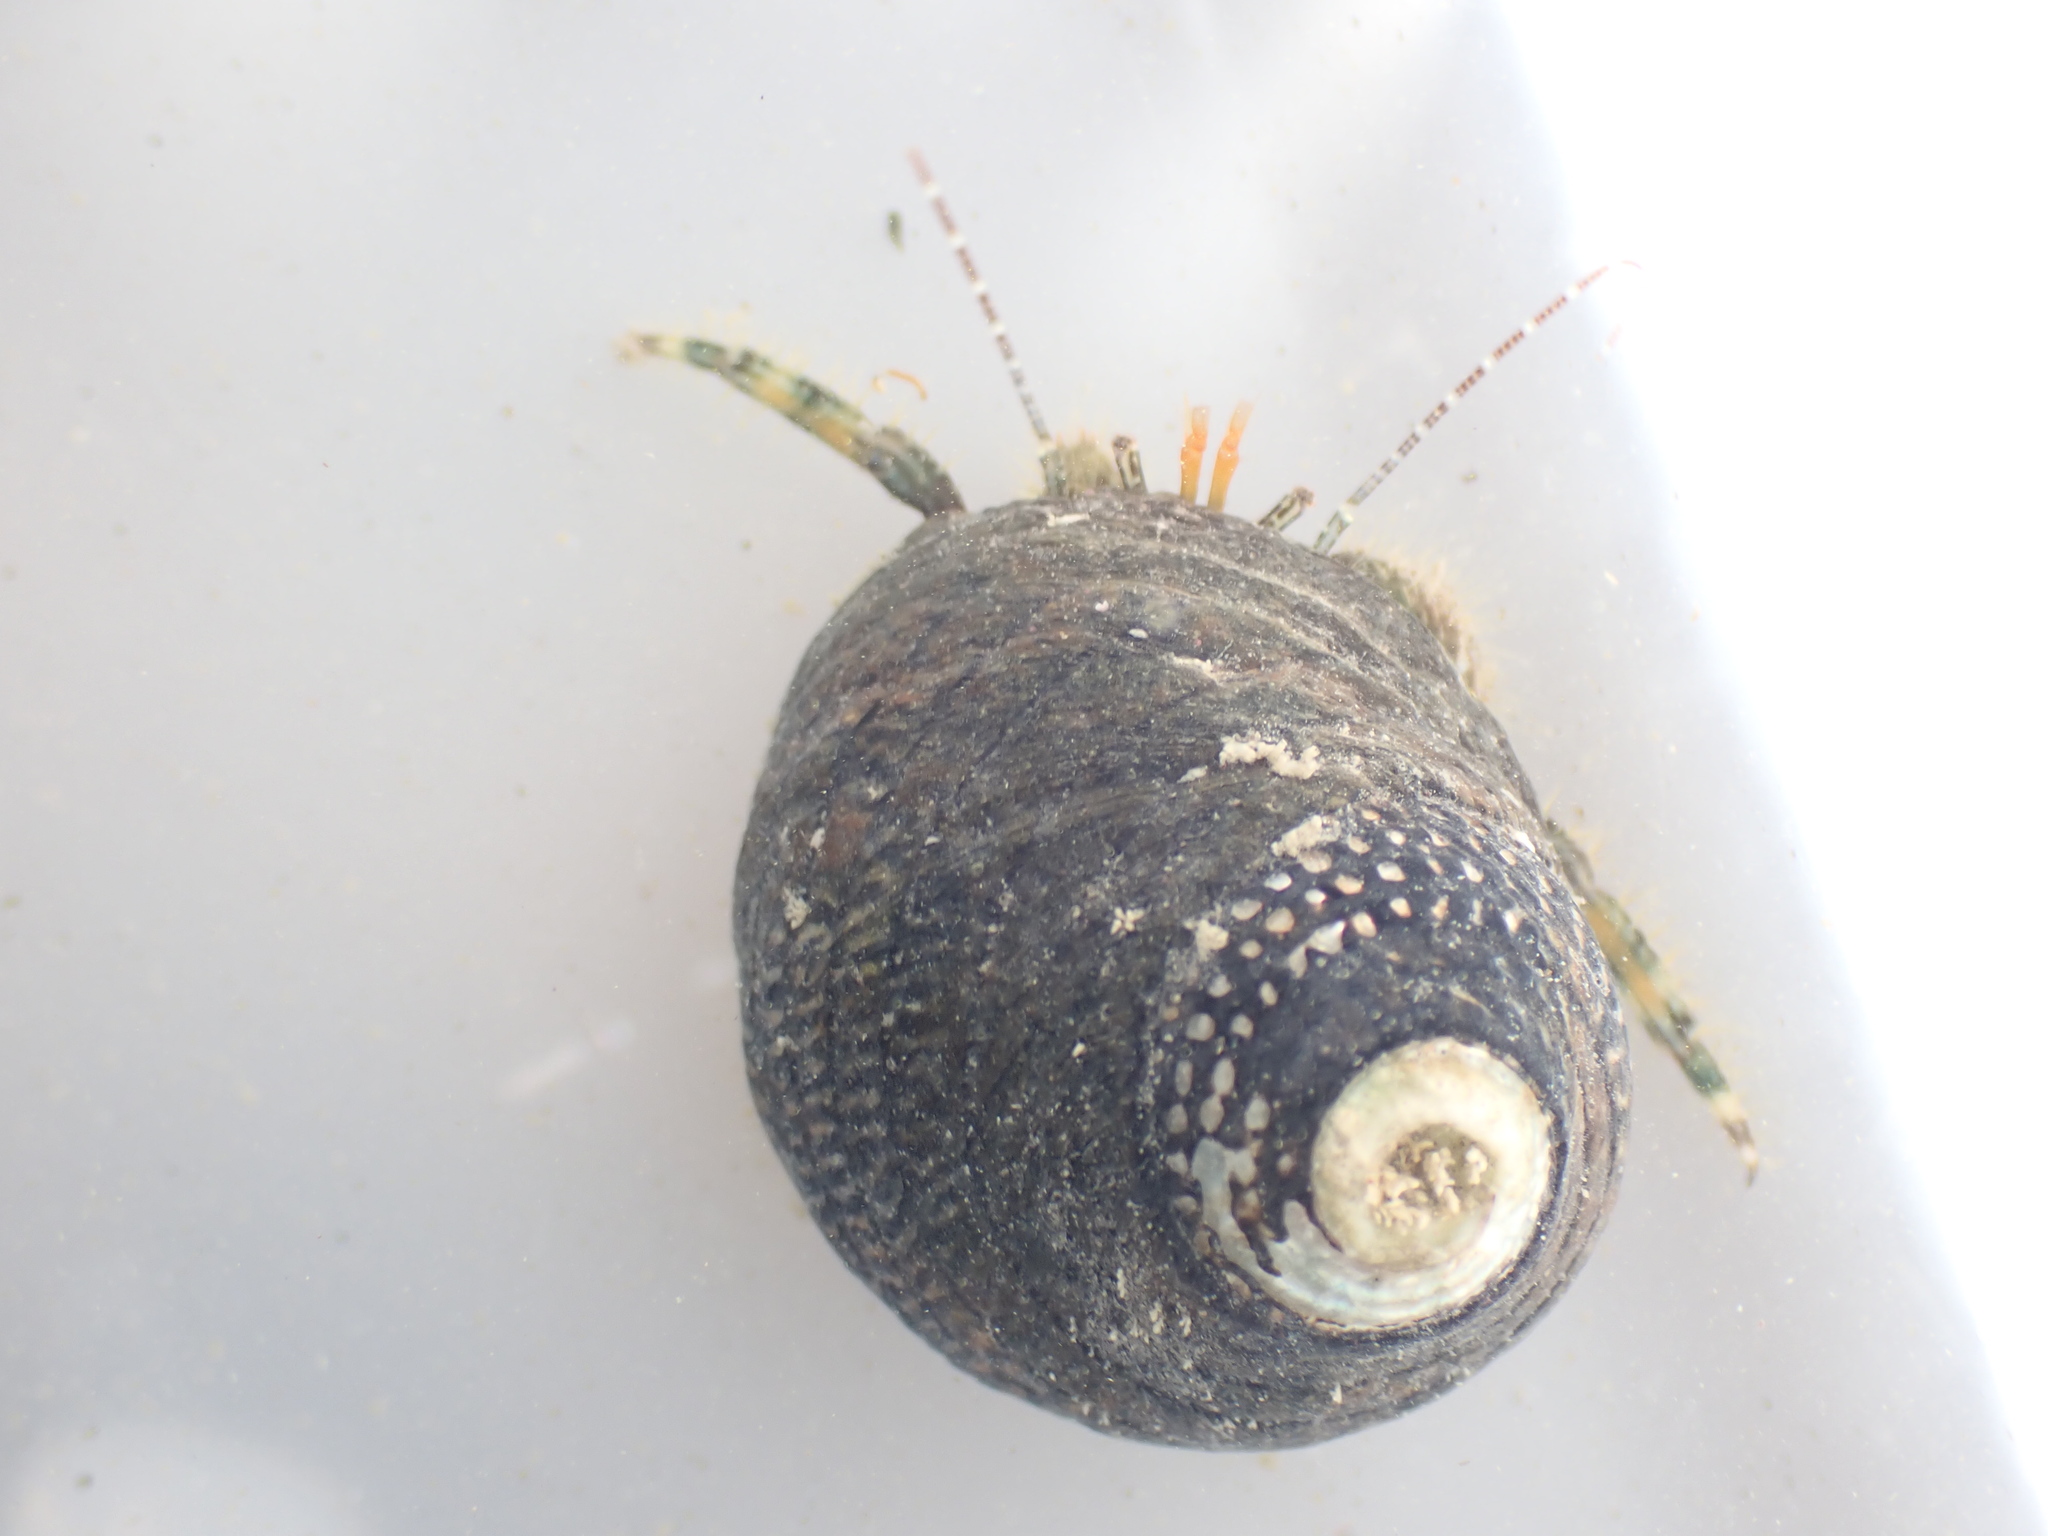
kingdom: Animalia
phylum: Arthropoda
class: Malacostraca
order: Decapoda
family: Paguridae
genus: Pagurus
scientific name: Pagurus traversi
